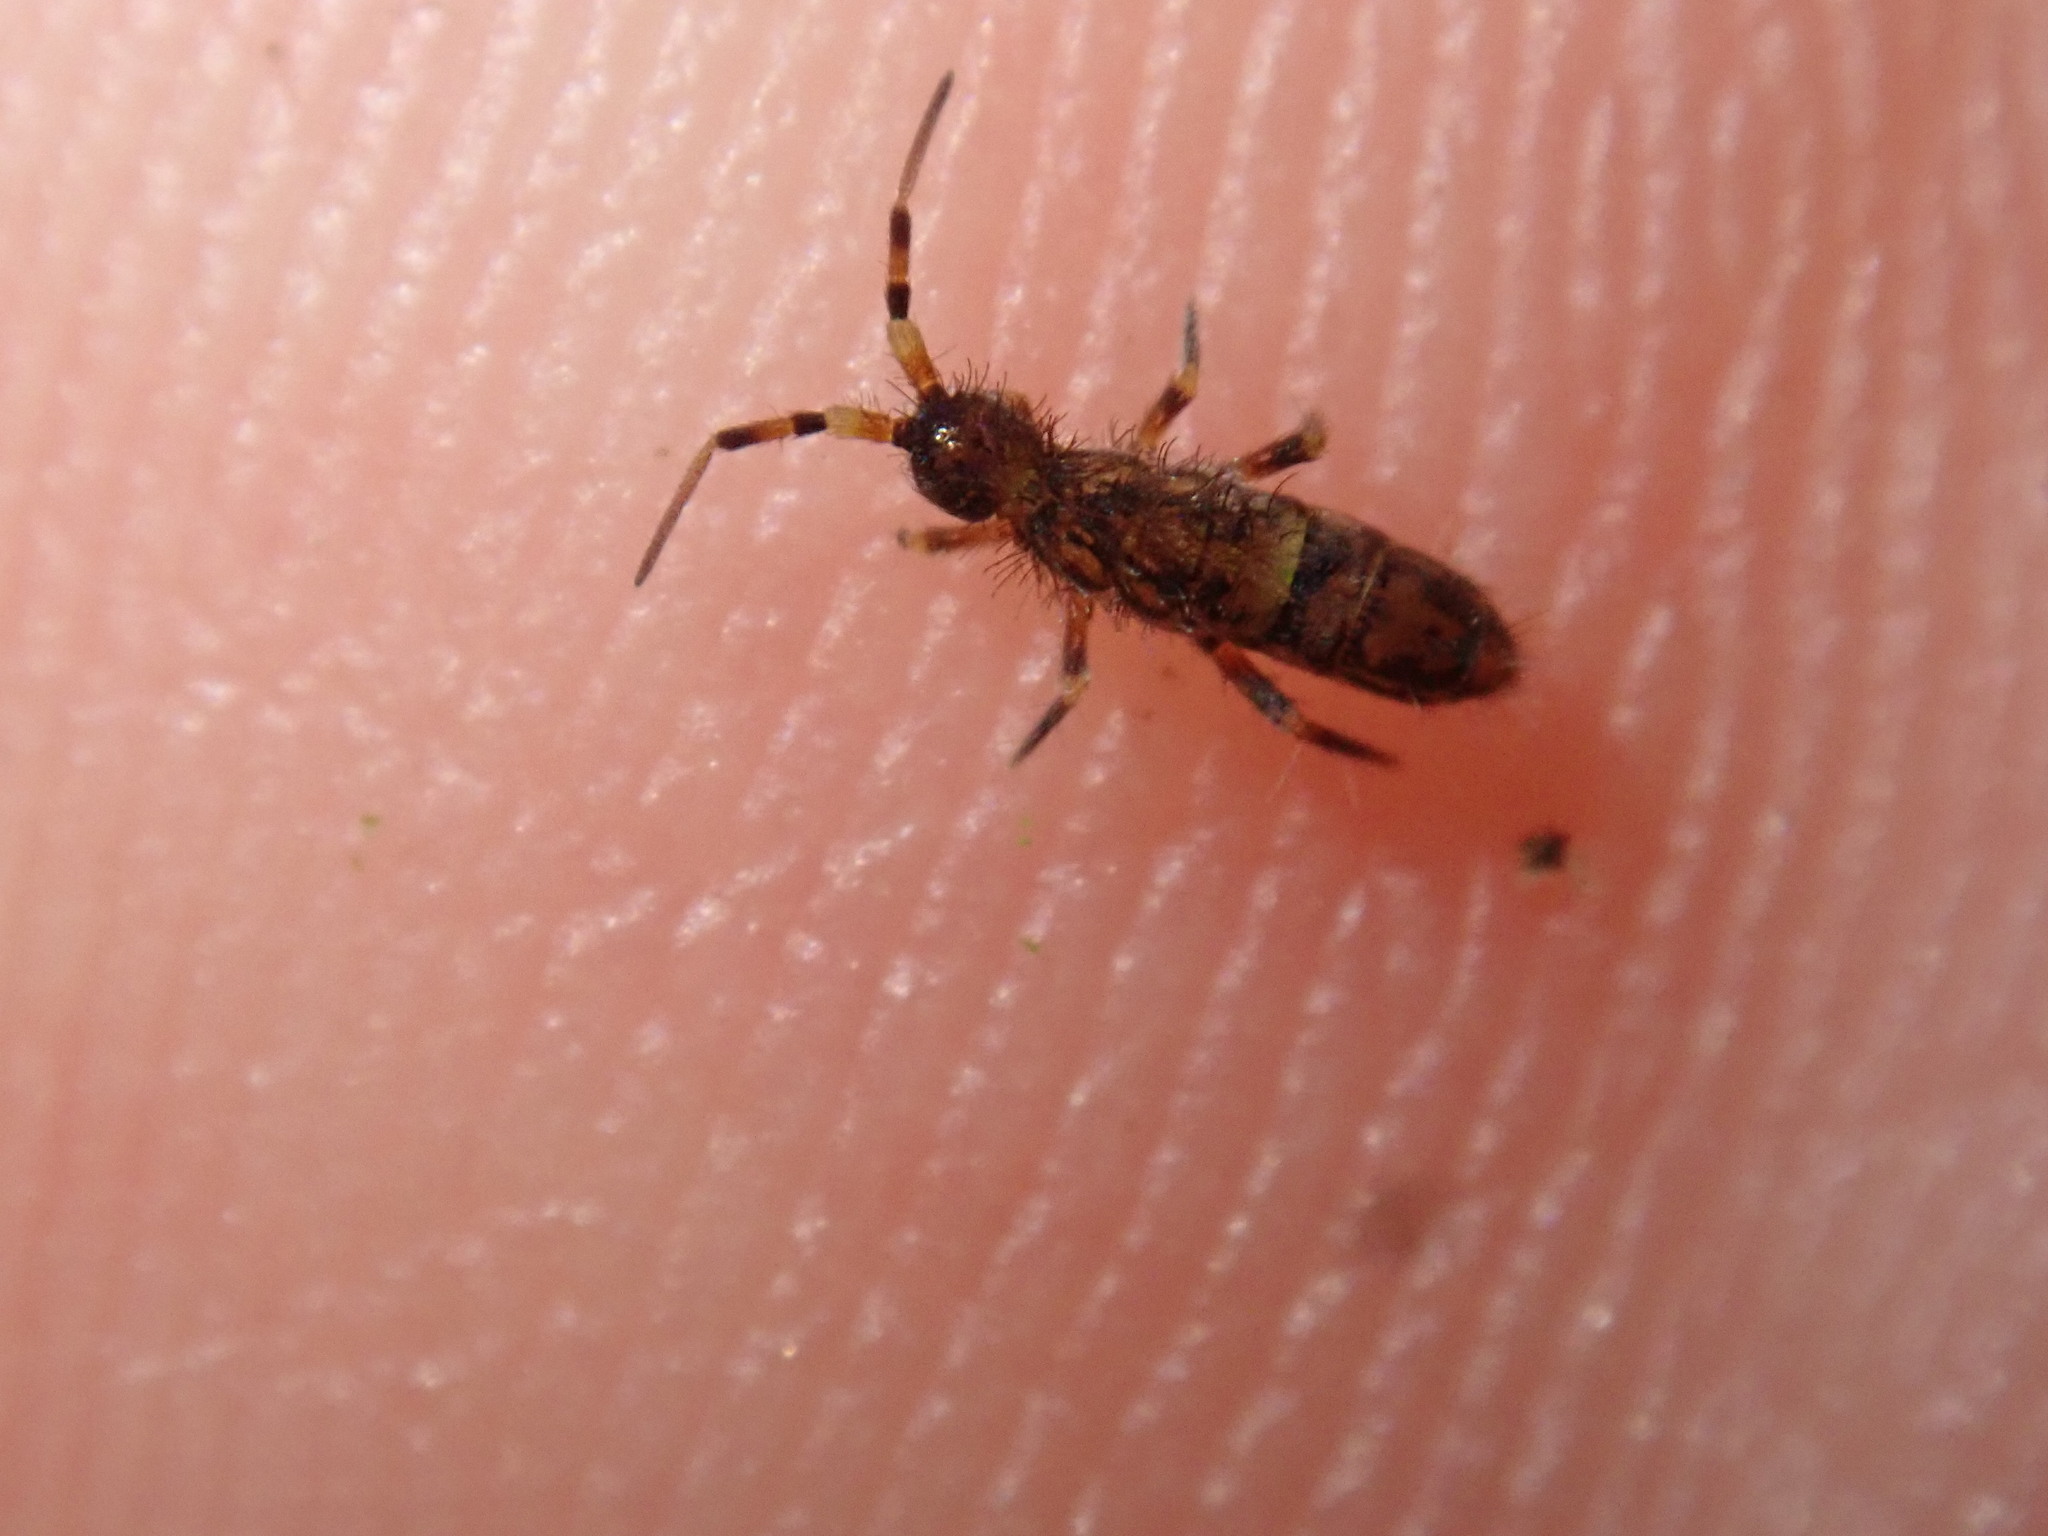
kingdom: Animalia
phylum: Arthropoda
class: Collembola
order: Entomobryomorpha
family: Orchesellidae
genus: Orchesella
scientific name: Orchesella cincta
